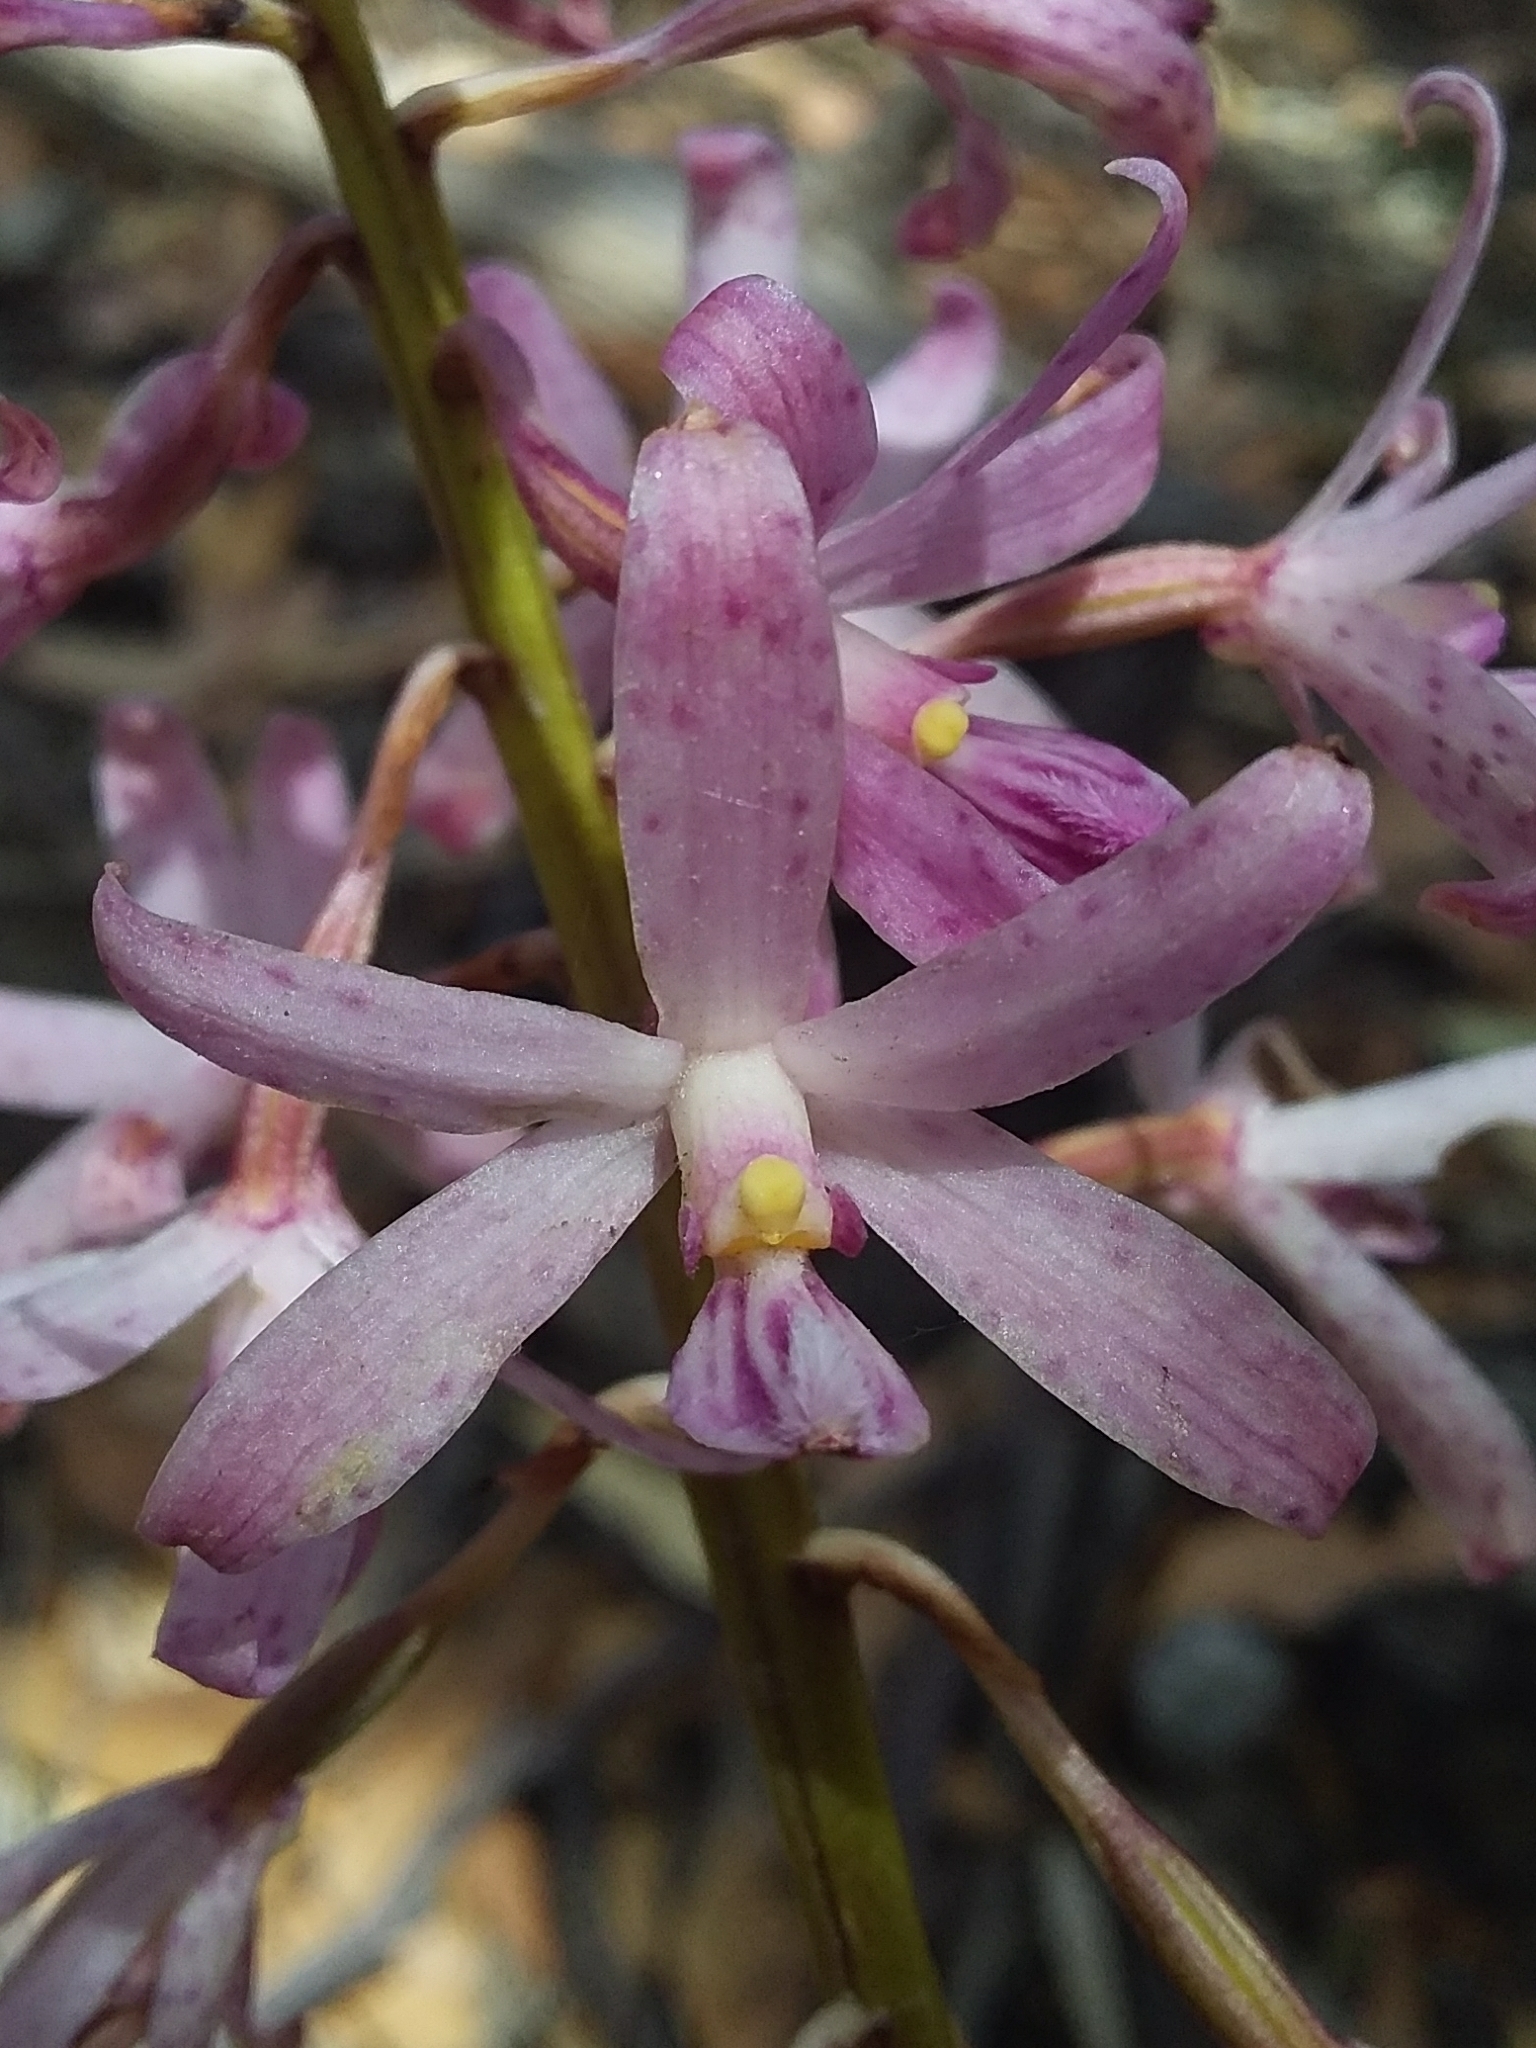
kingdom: Plantae
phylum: Tracheophyta
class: Liliopsida
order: Asparagales
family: Orchidaceae
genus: Dipodium
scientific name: Dipodium roseum
